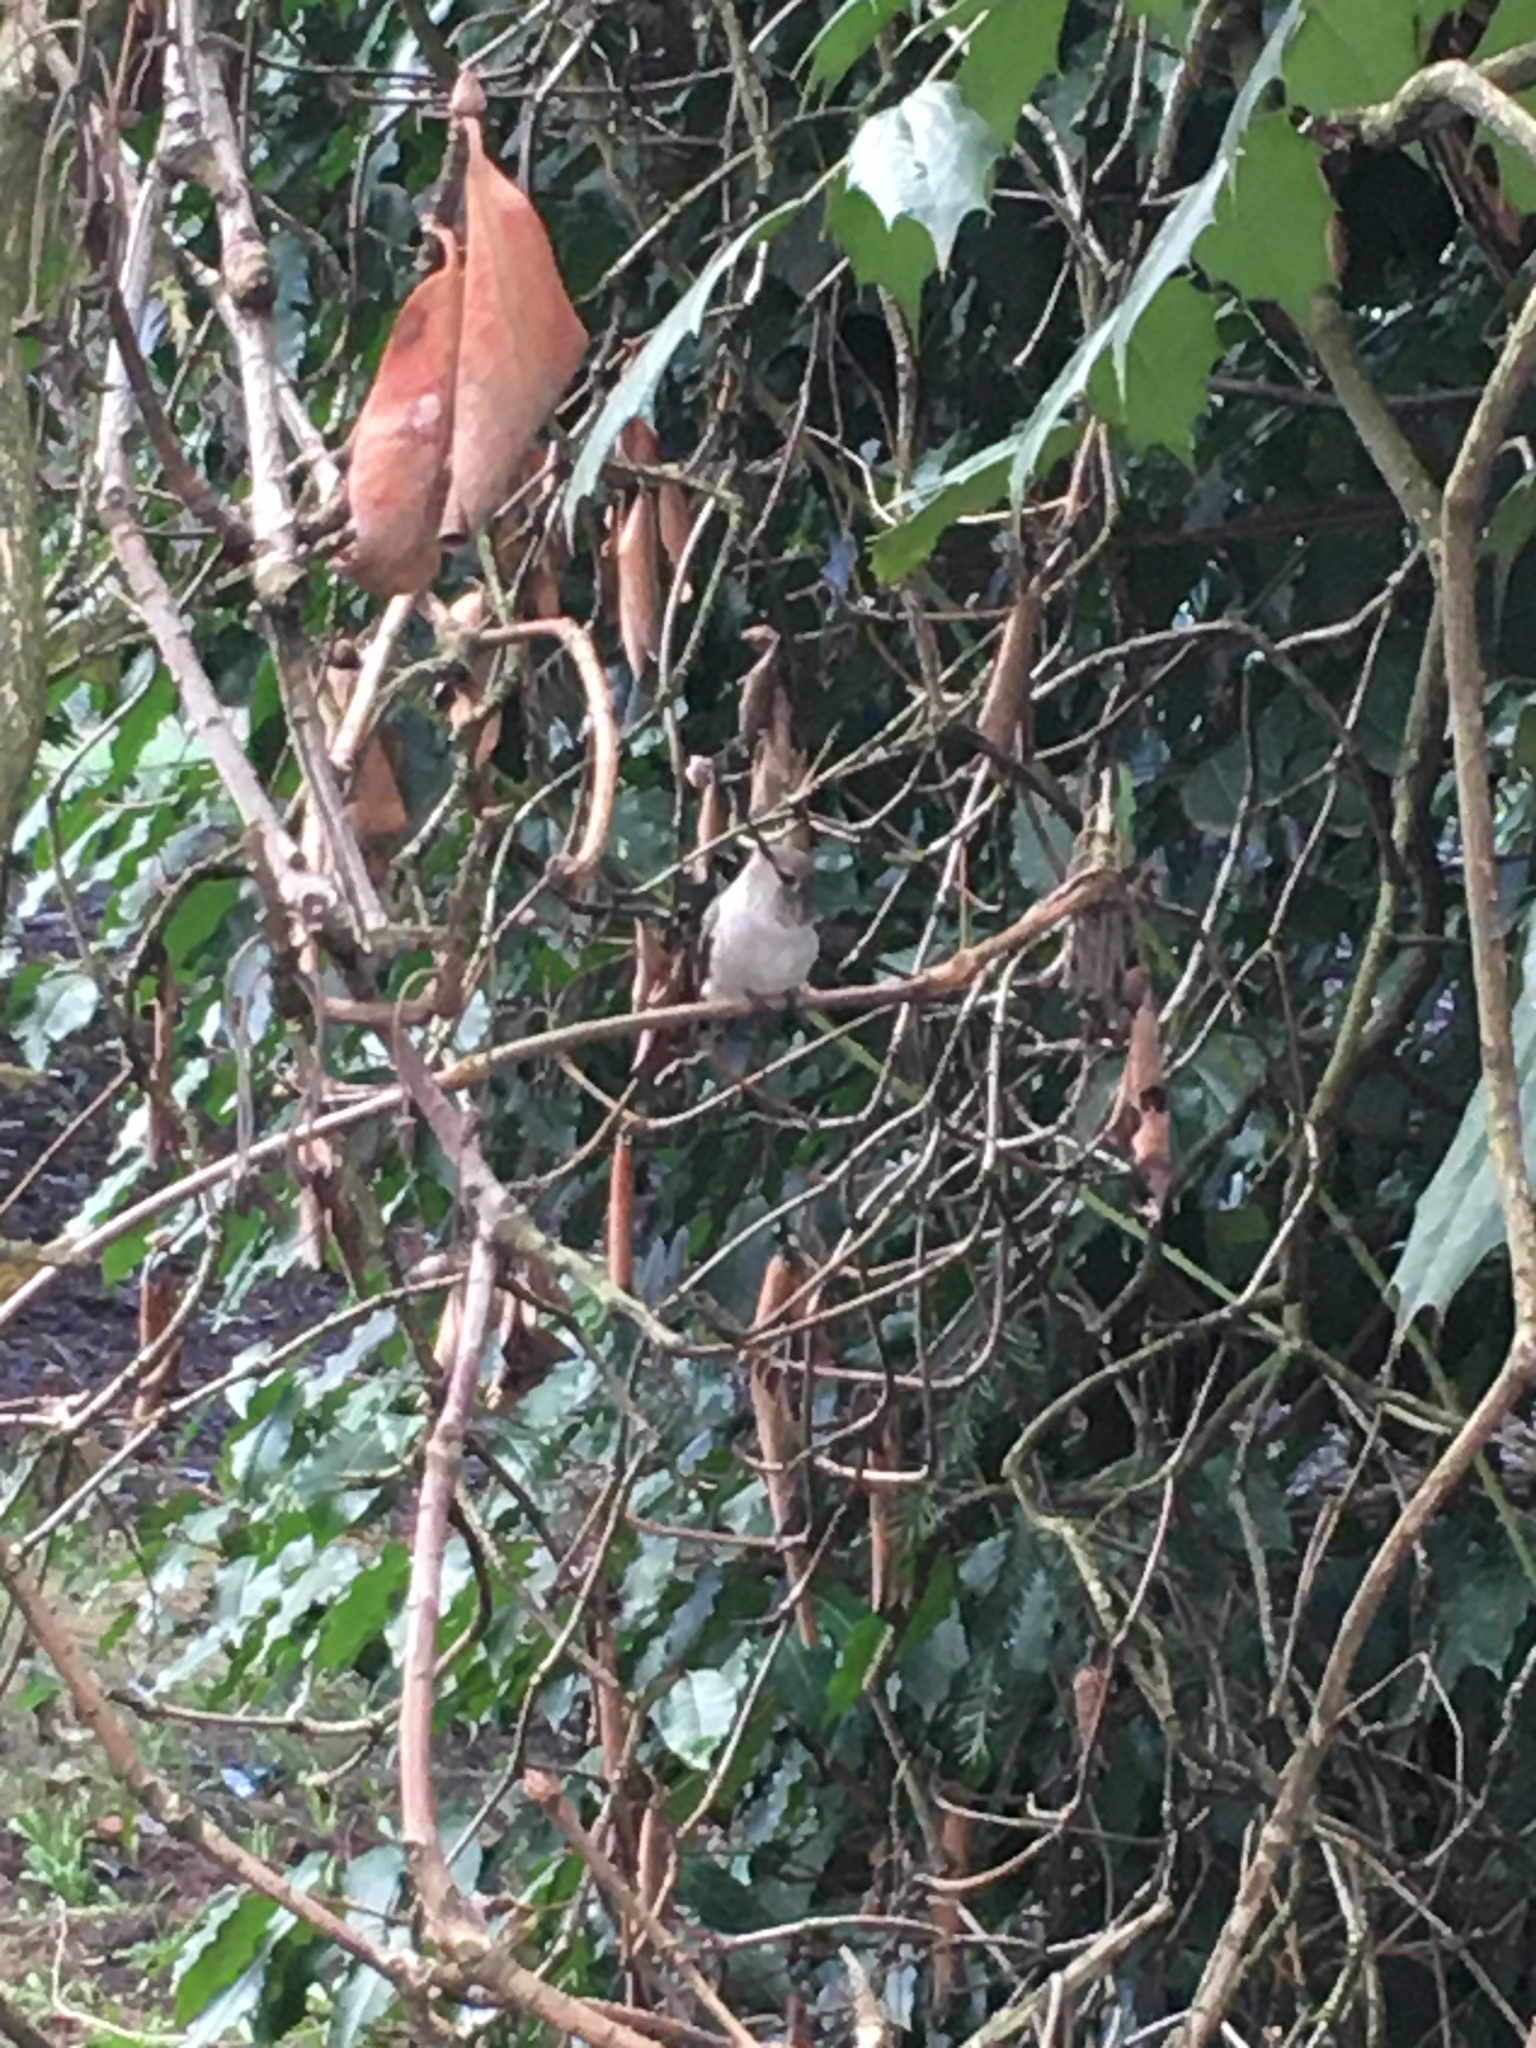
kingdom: Animalia
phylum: Chordata
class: Aves
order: Apodiformes
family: Trochilidae
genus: Calypte
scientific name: Calypte anna
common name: Anna's hummingbird
